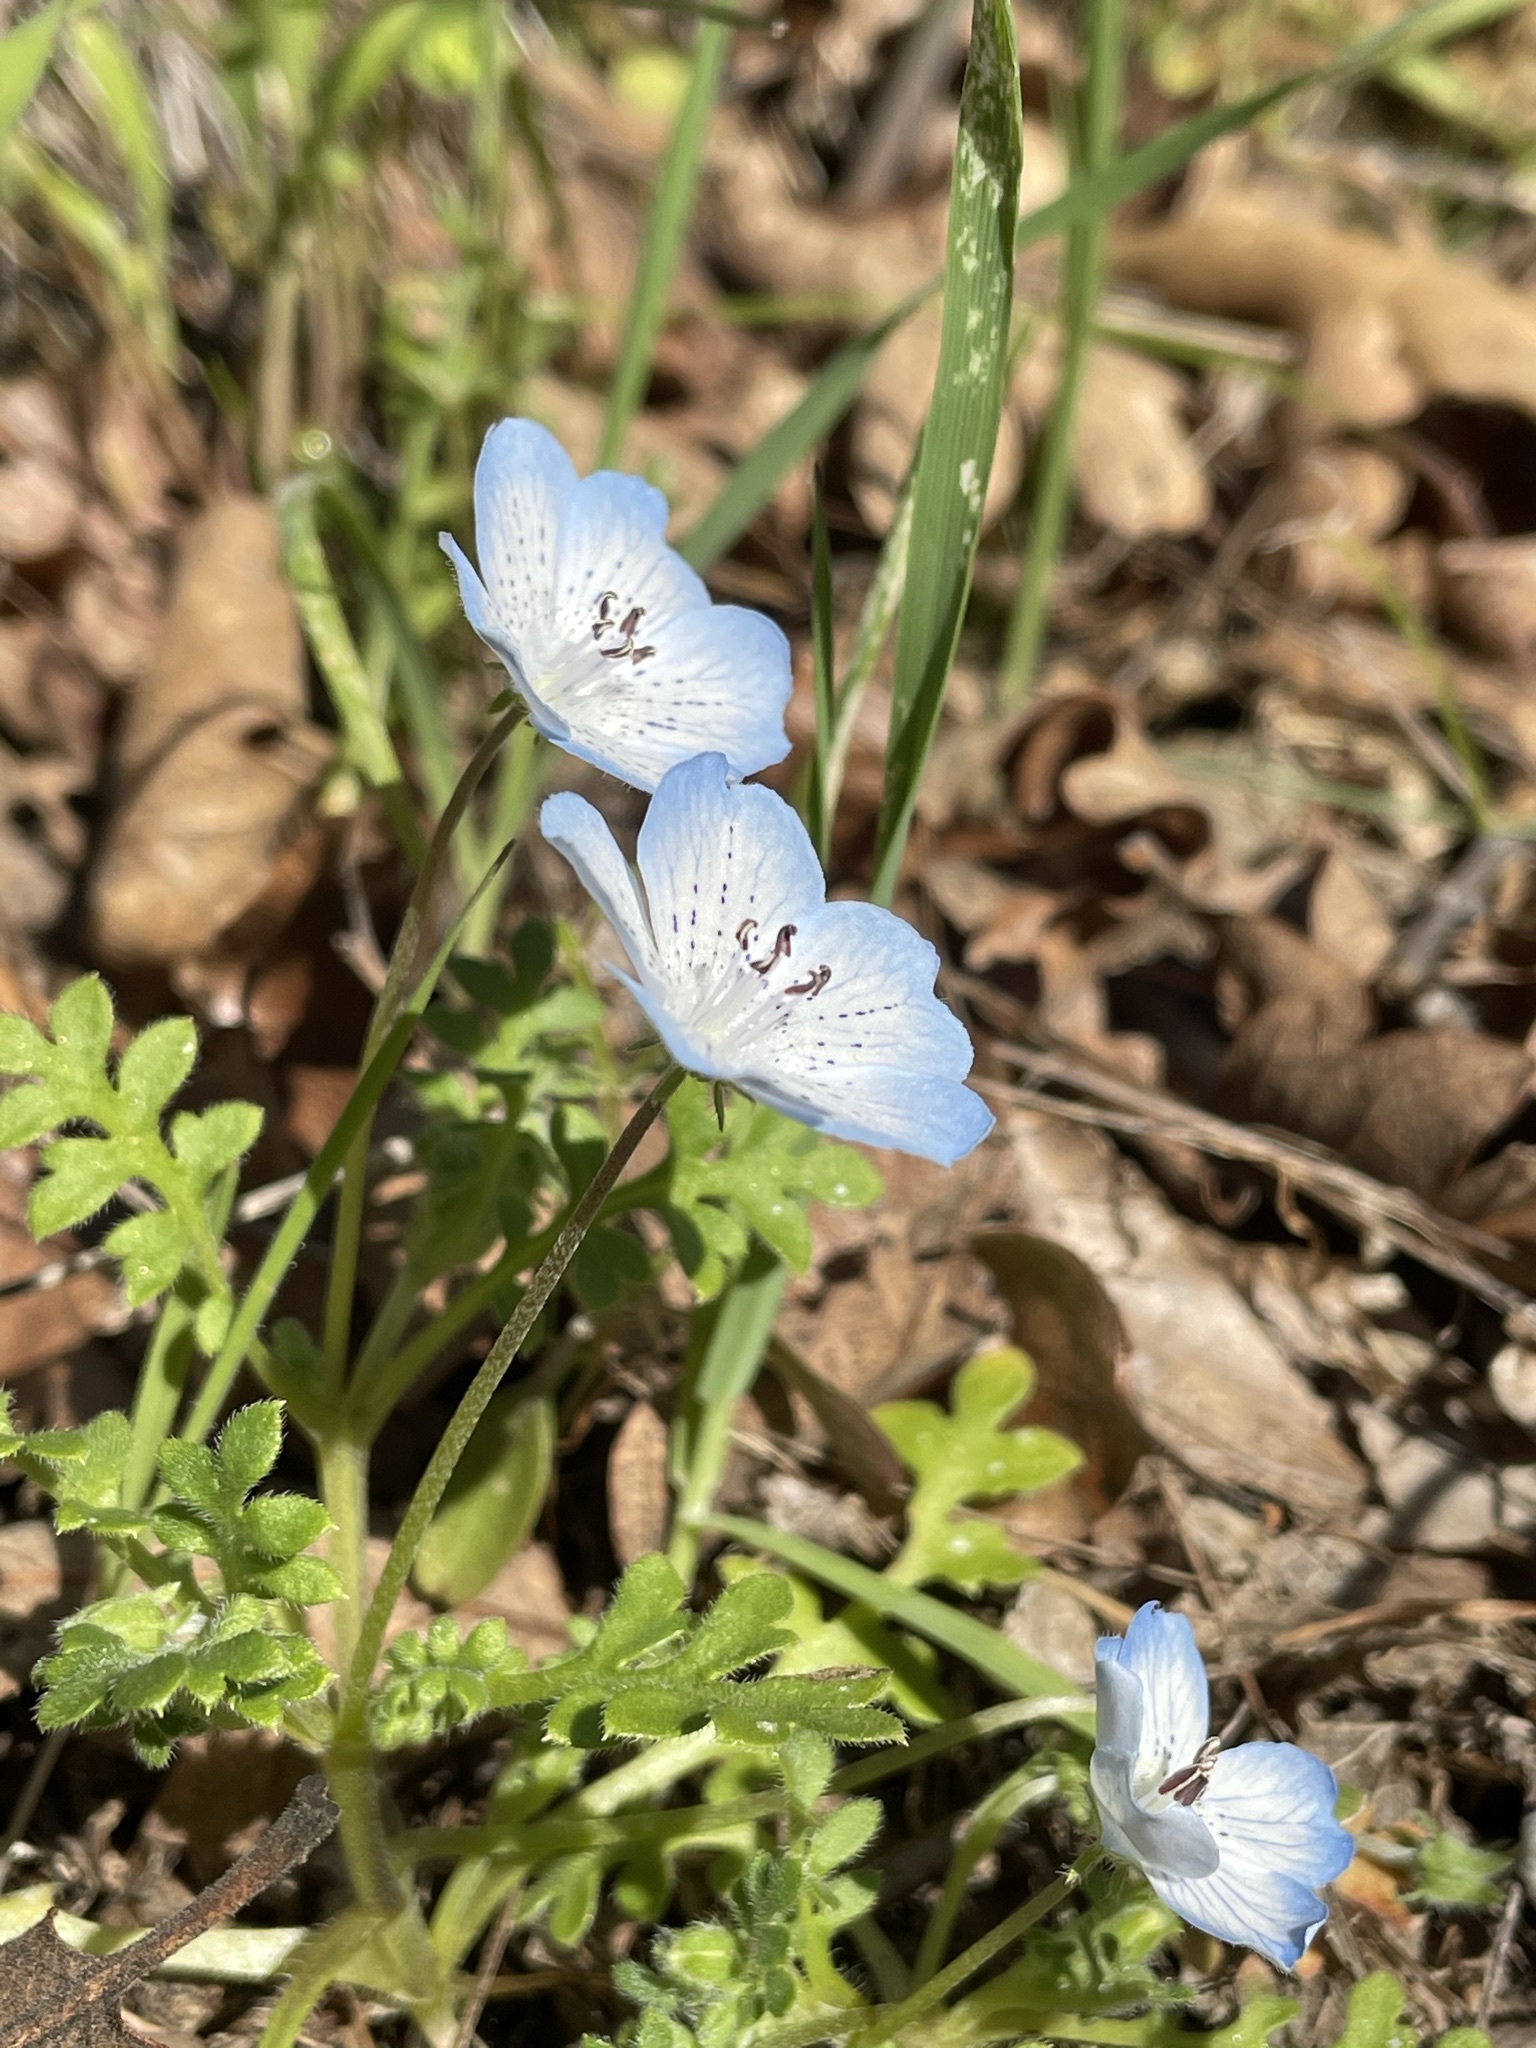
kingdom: Plantae
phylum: Tracheophyta
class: Magnoliopsida
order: Boraginales
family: Hydrophyllaceae
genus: Nemophila
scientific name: Nemophila menziesii
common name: Baby's-blue-eyes
